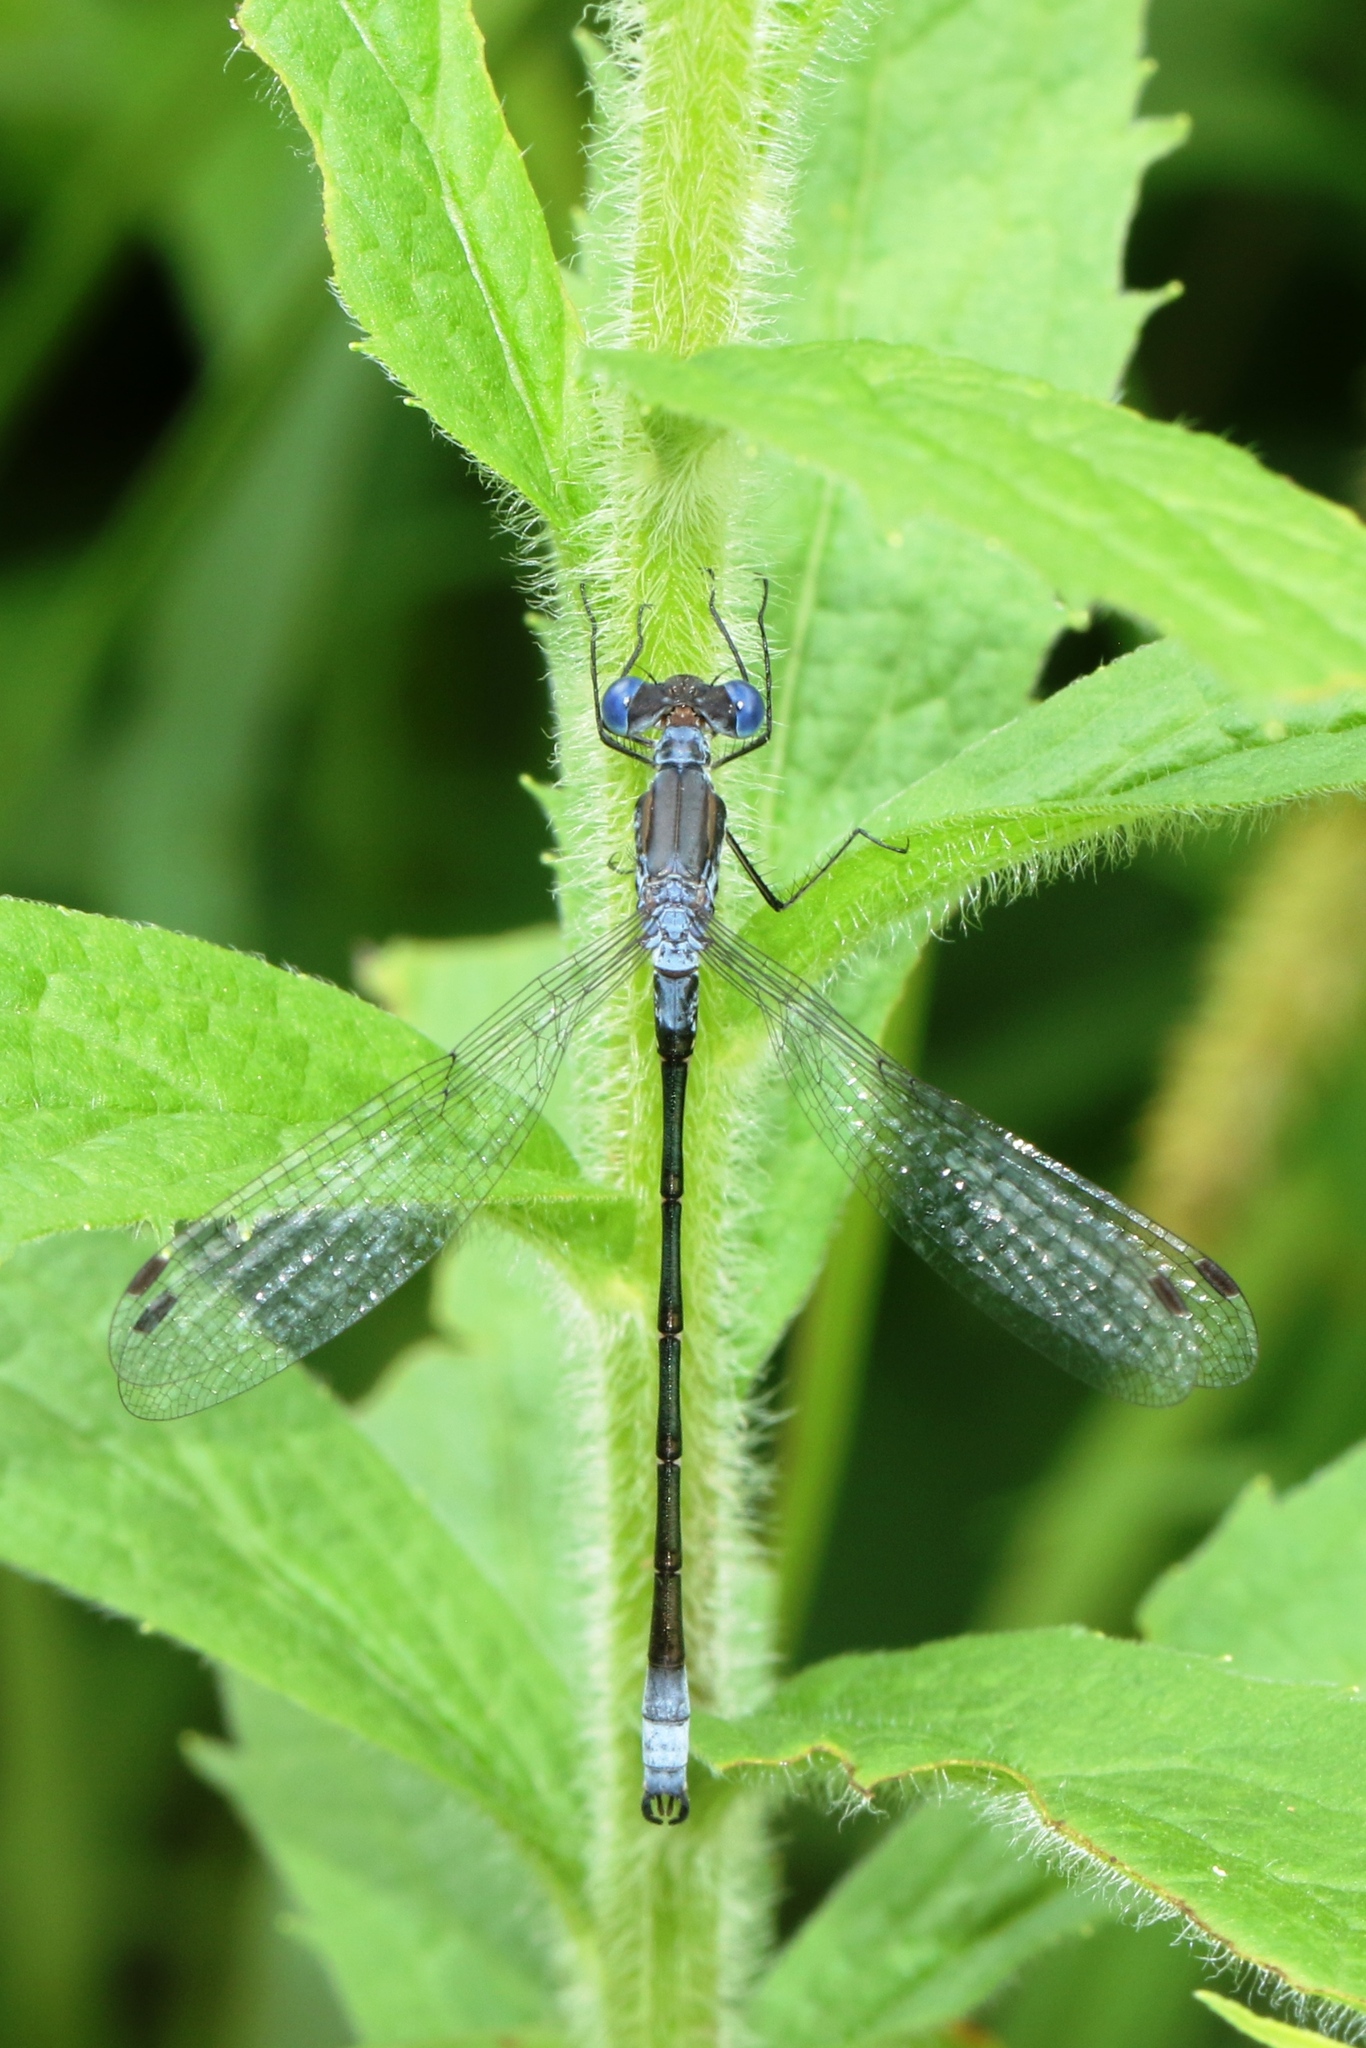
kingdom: Animalia
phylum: Arthropoda
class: Insecta
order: Odonata
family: Lestidae
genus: Lestes
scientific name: Lestes forcipatus
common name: Sweetflag spreadwing
